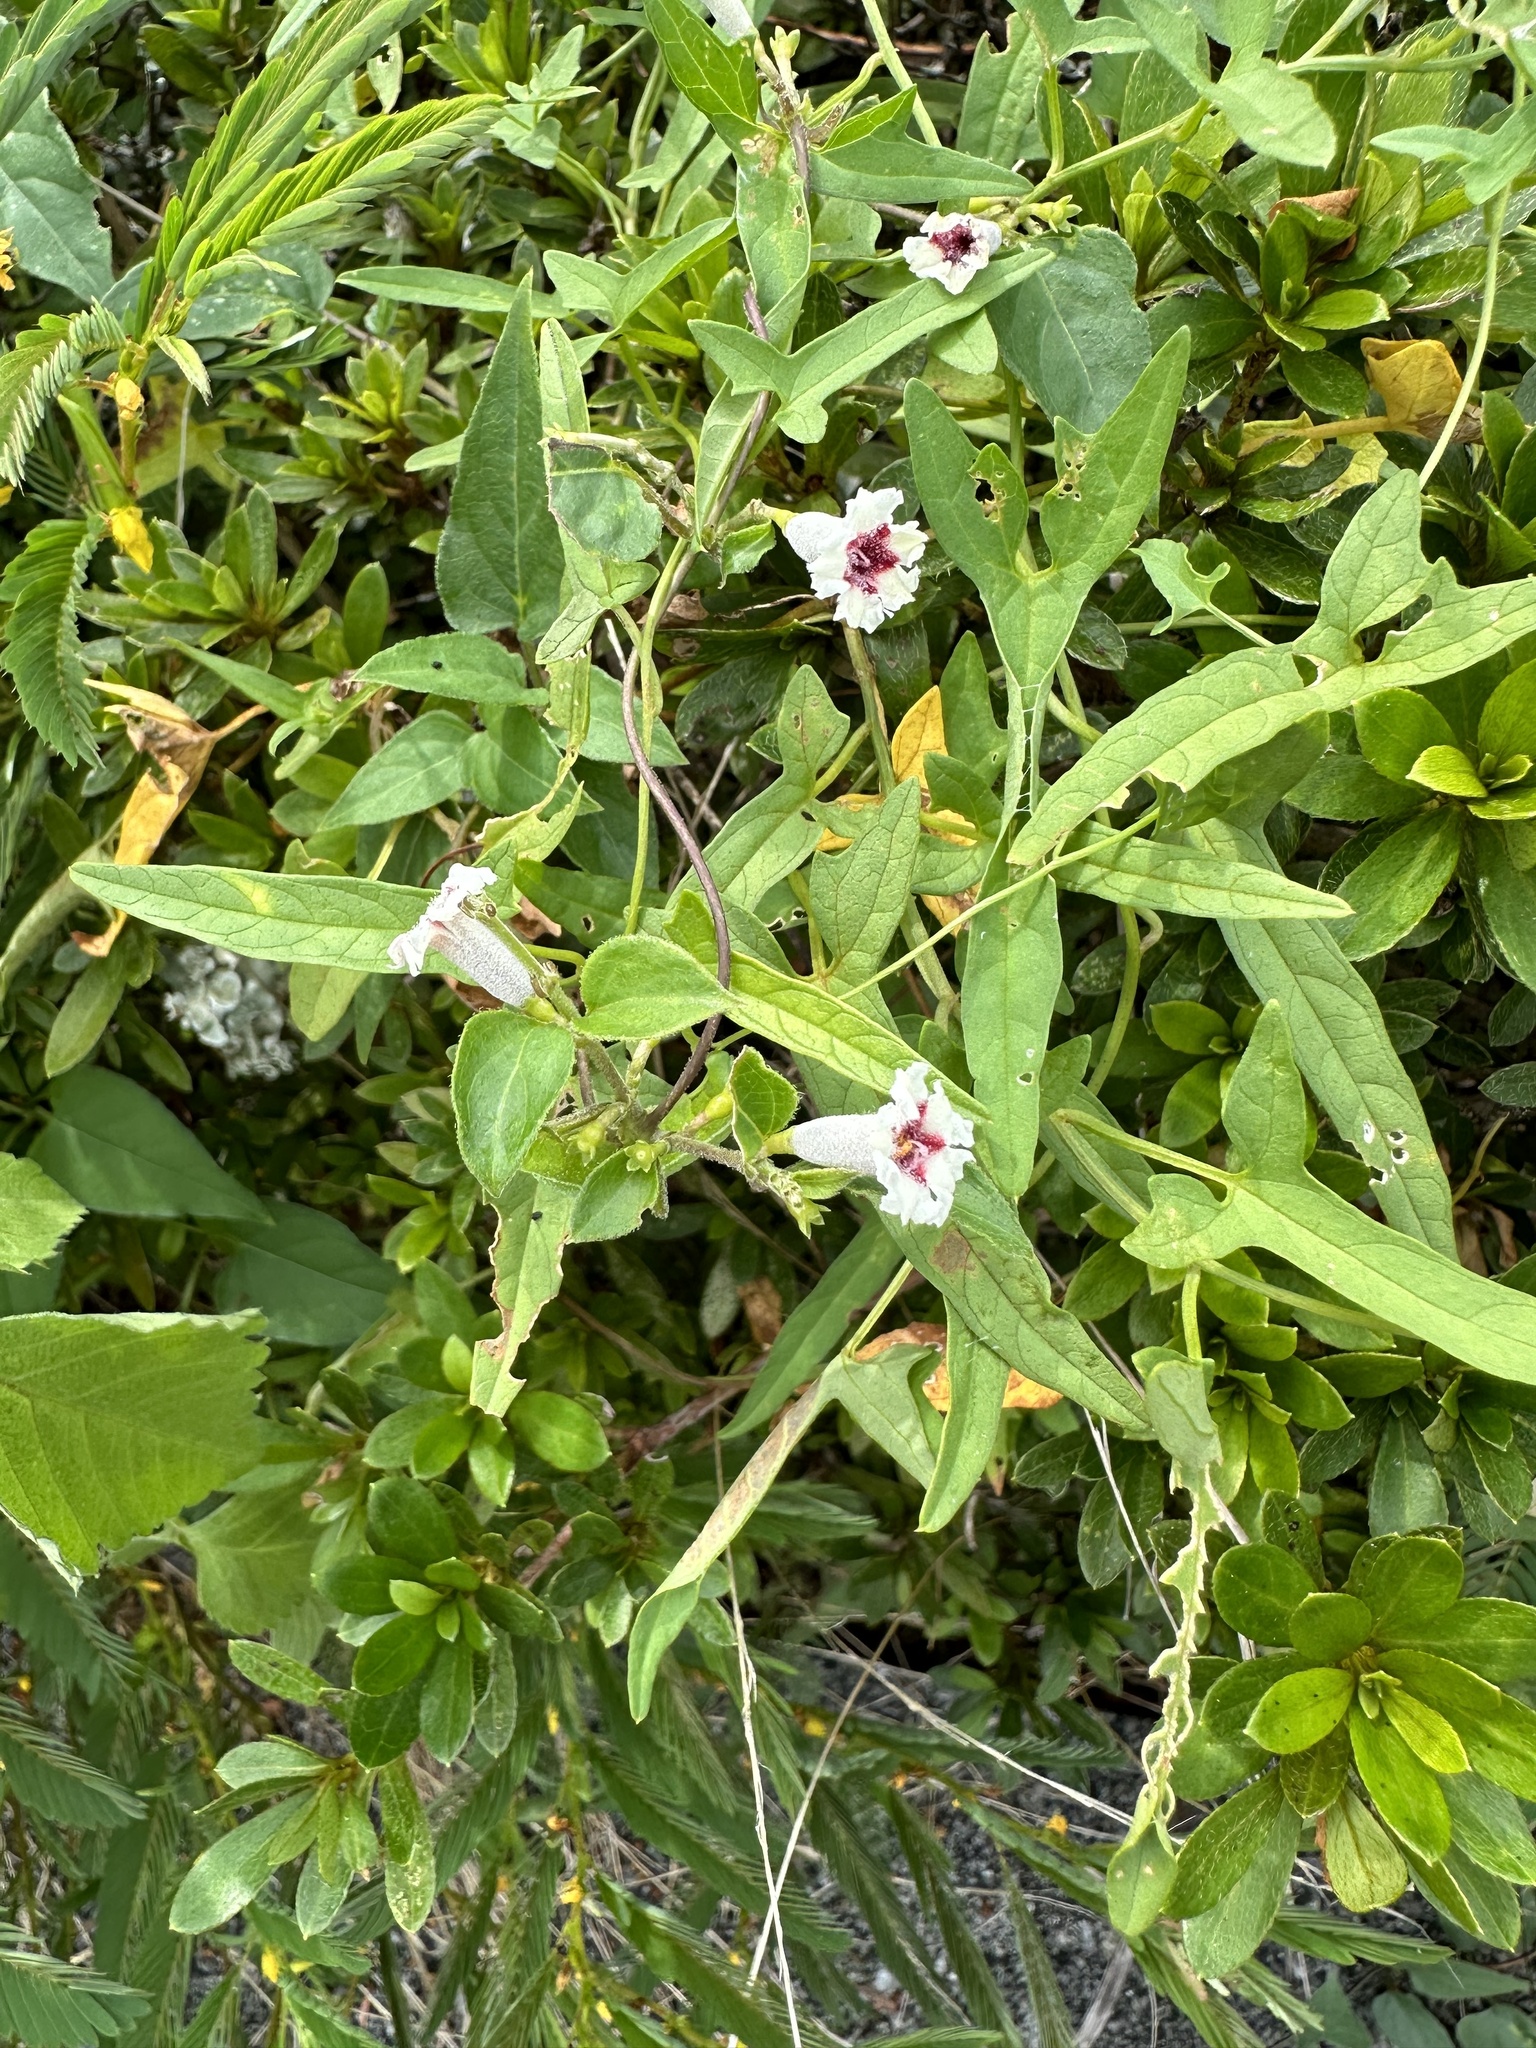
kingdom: Plantae
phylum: Tracheophyta
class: Magnoliopsida
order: Gentianales
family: Rubiaceae
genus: Paederia
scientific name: Paederia foetida
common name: Stinkvine
